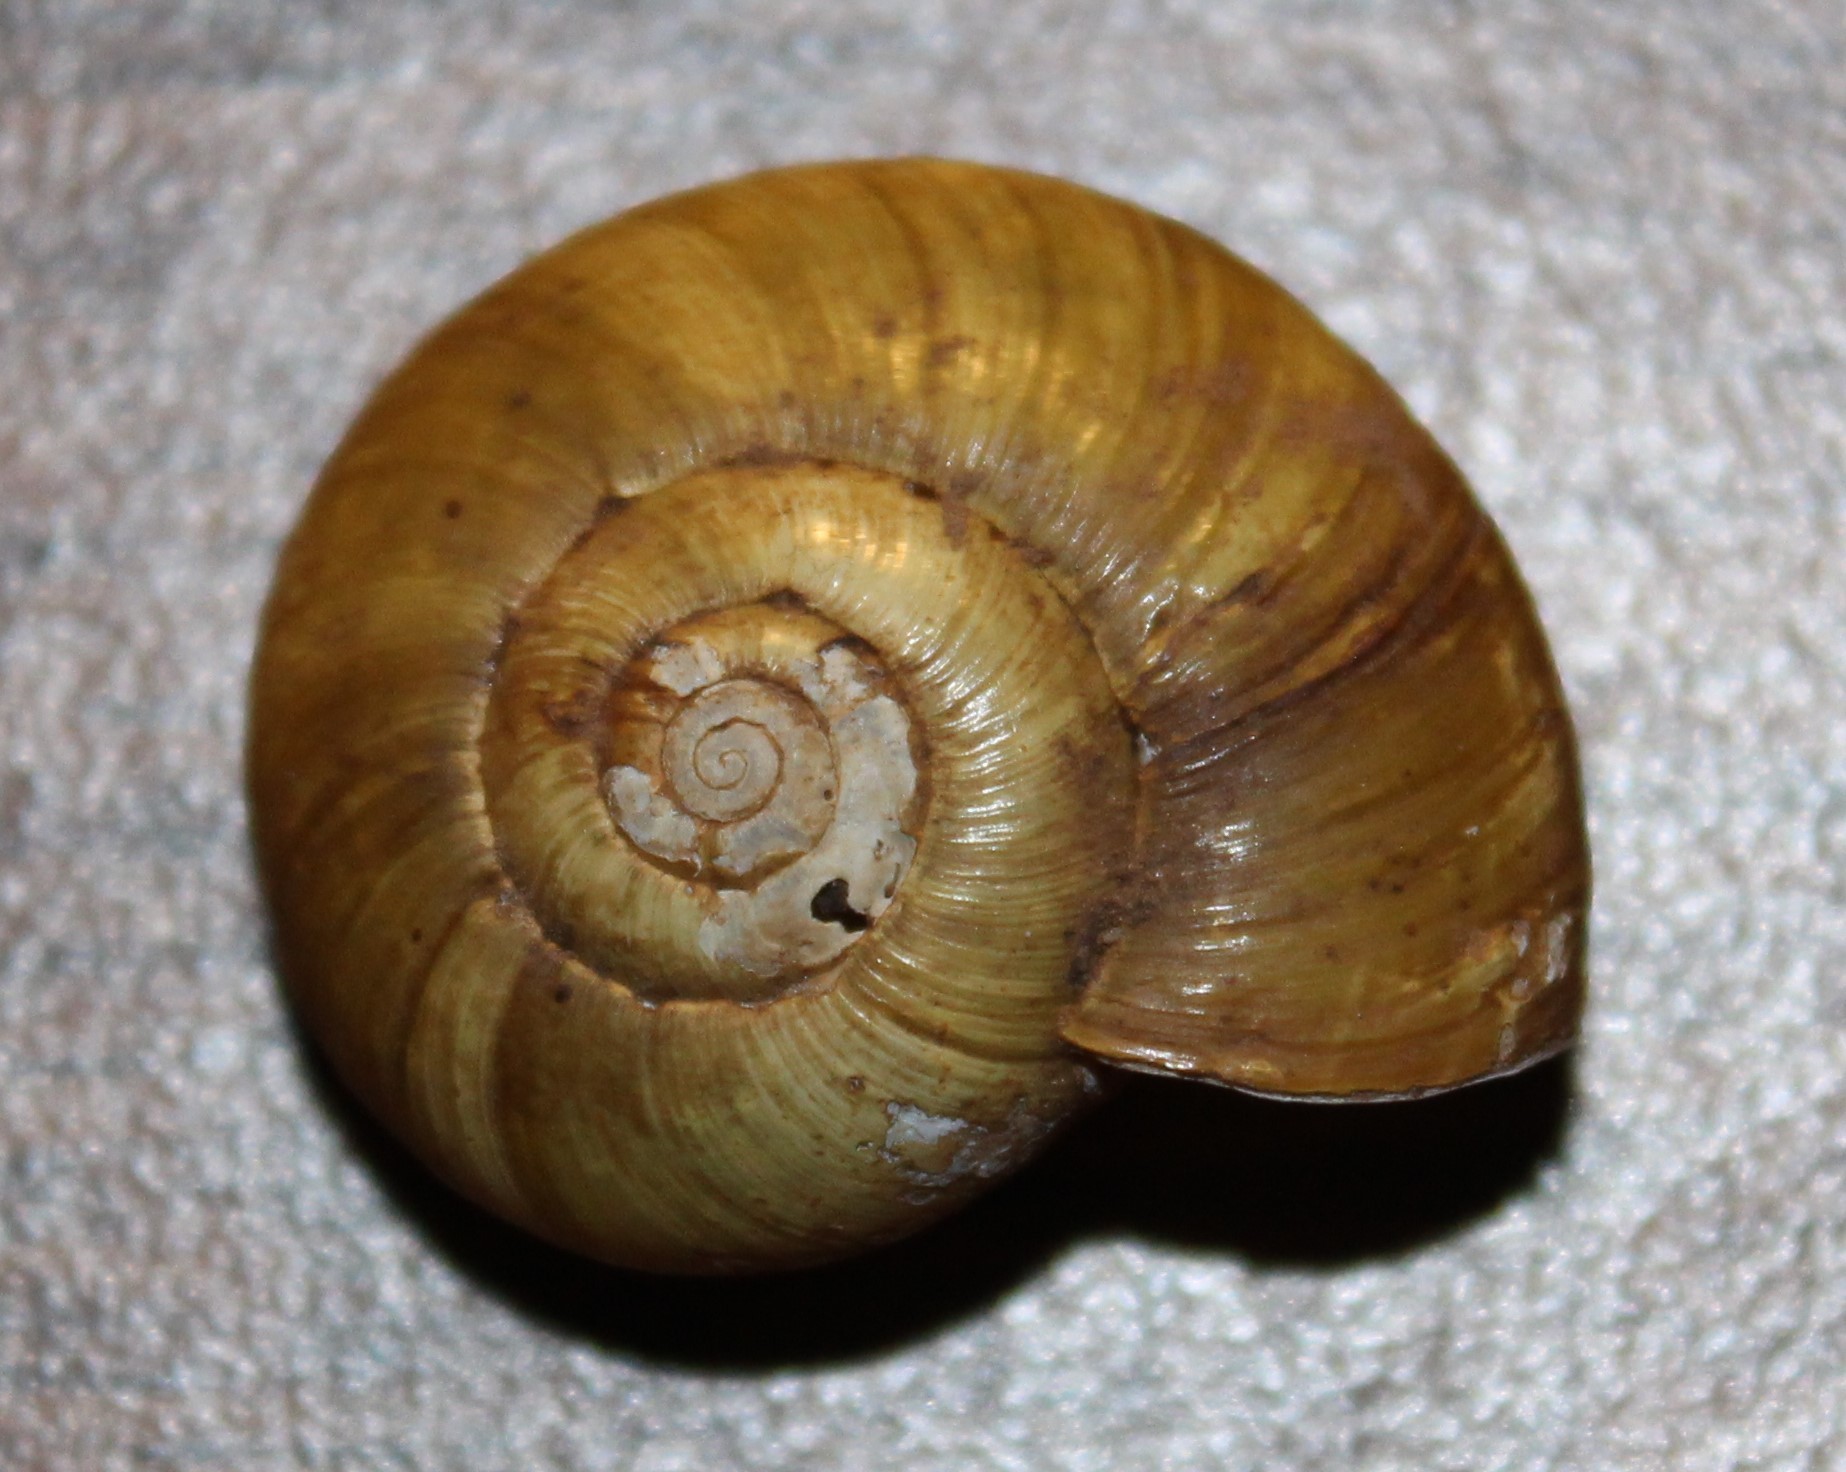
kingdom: Animalia
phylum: Mollusca
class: Gastropoda
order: Stylommatophora
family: Haplotrematidae
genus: Haplotrema
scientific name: Haplotrema vancouverense
